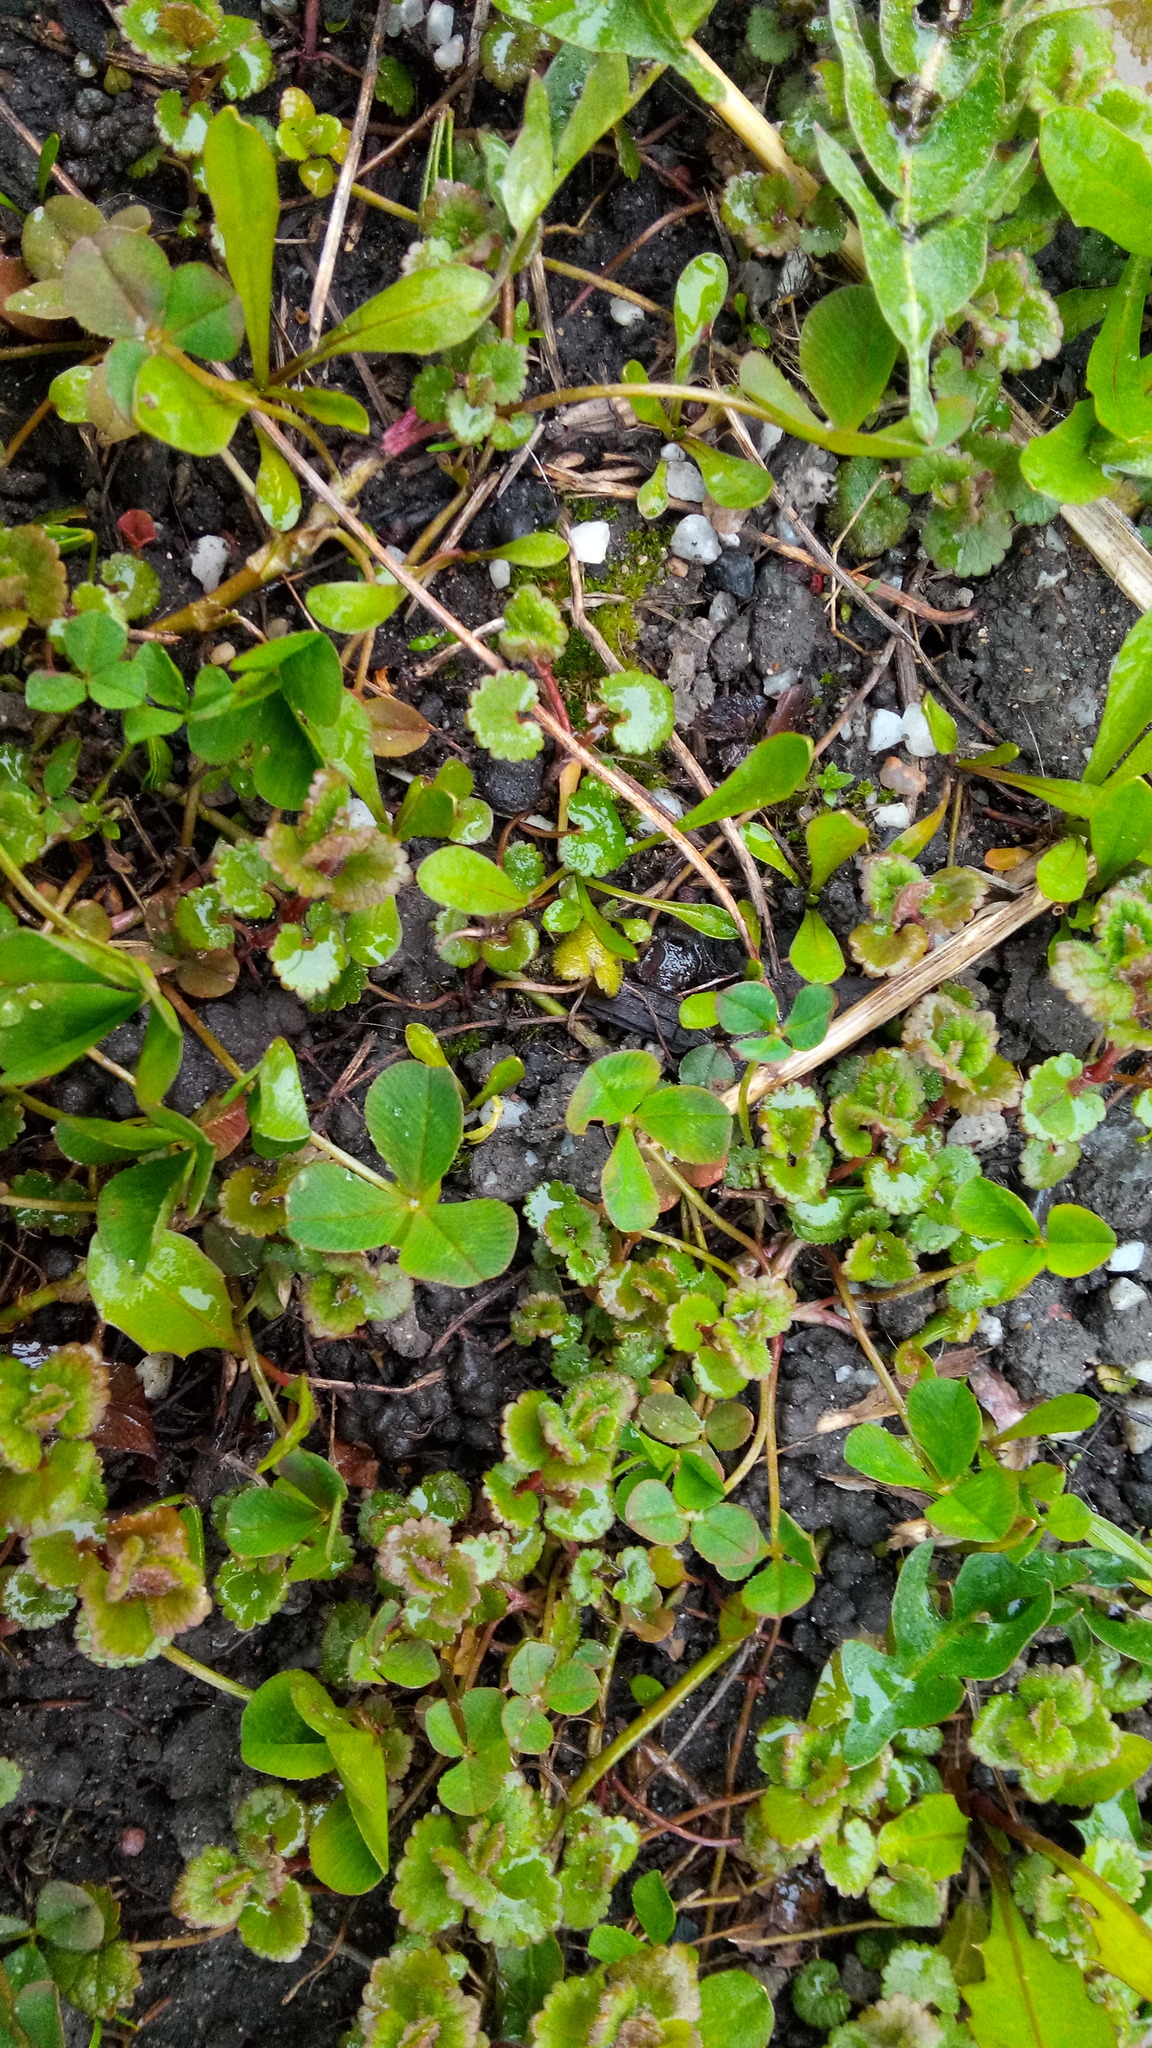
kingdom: Plantae
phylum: Tracheophyta
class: Magnoliopsida
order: Lamiales
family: Lamiaceae
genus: Glechoma
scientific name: Glechoma hederacea
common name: Ground ivy
